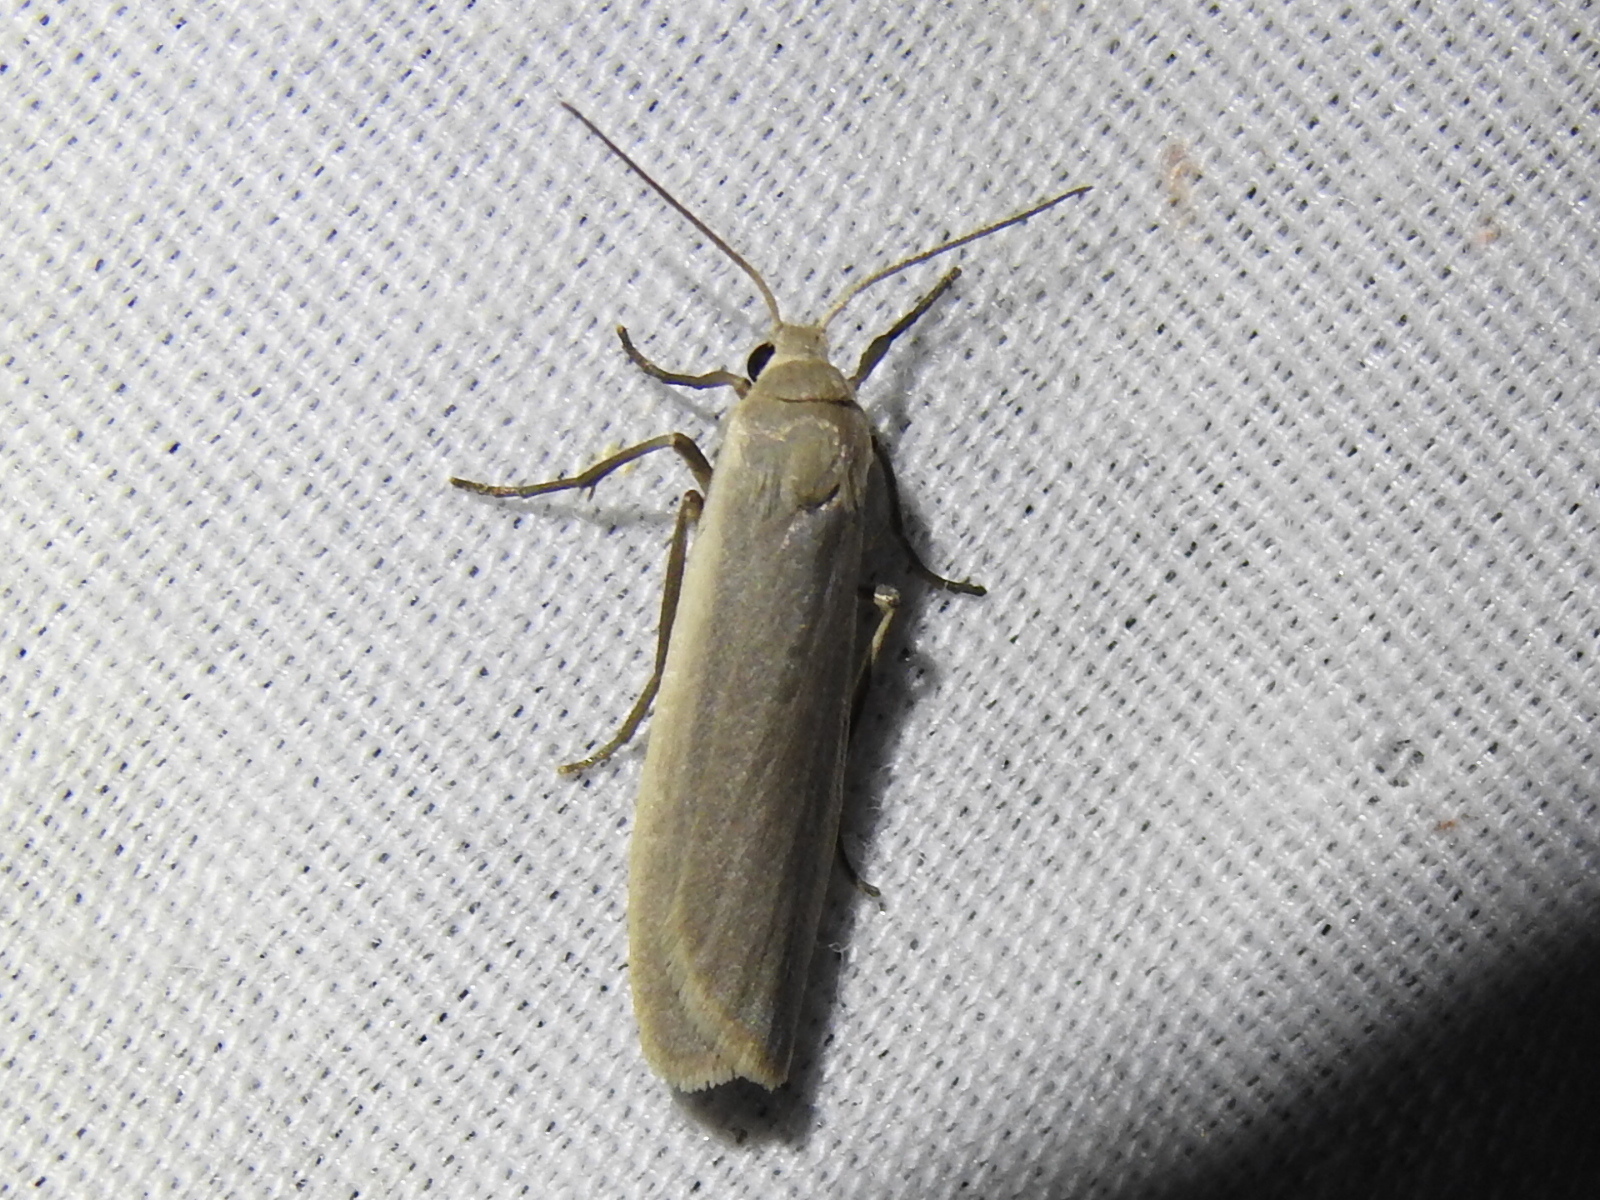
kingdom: Animalia
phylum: Arthropoda
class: Insecta
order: Lepidoptera
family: Erebidae
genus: Crambidia
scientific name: Crambidia myrlosea
